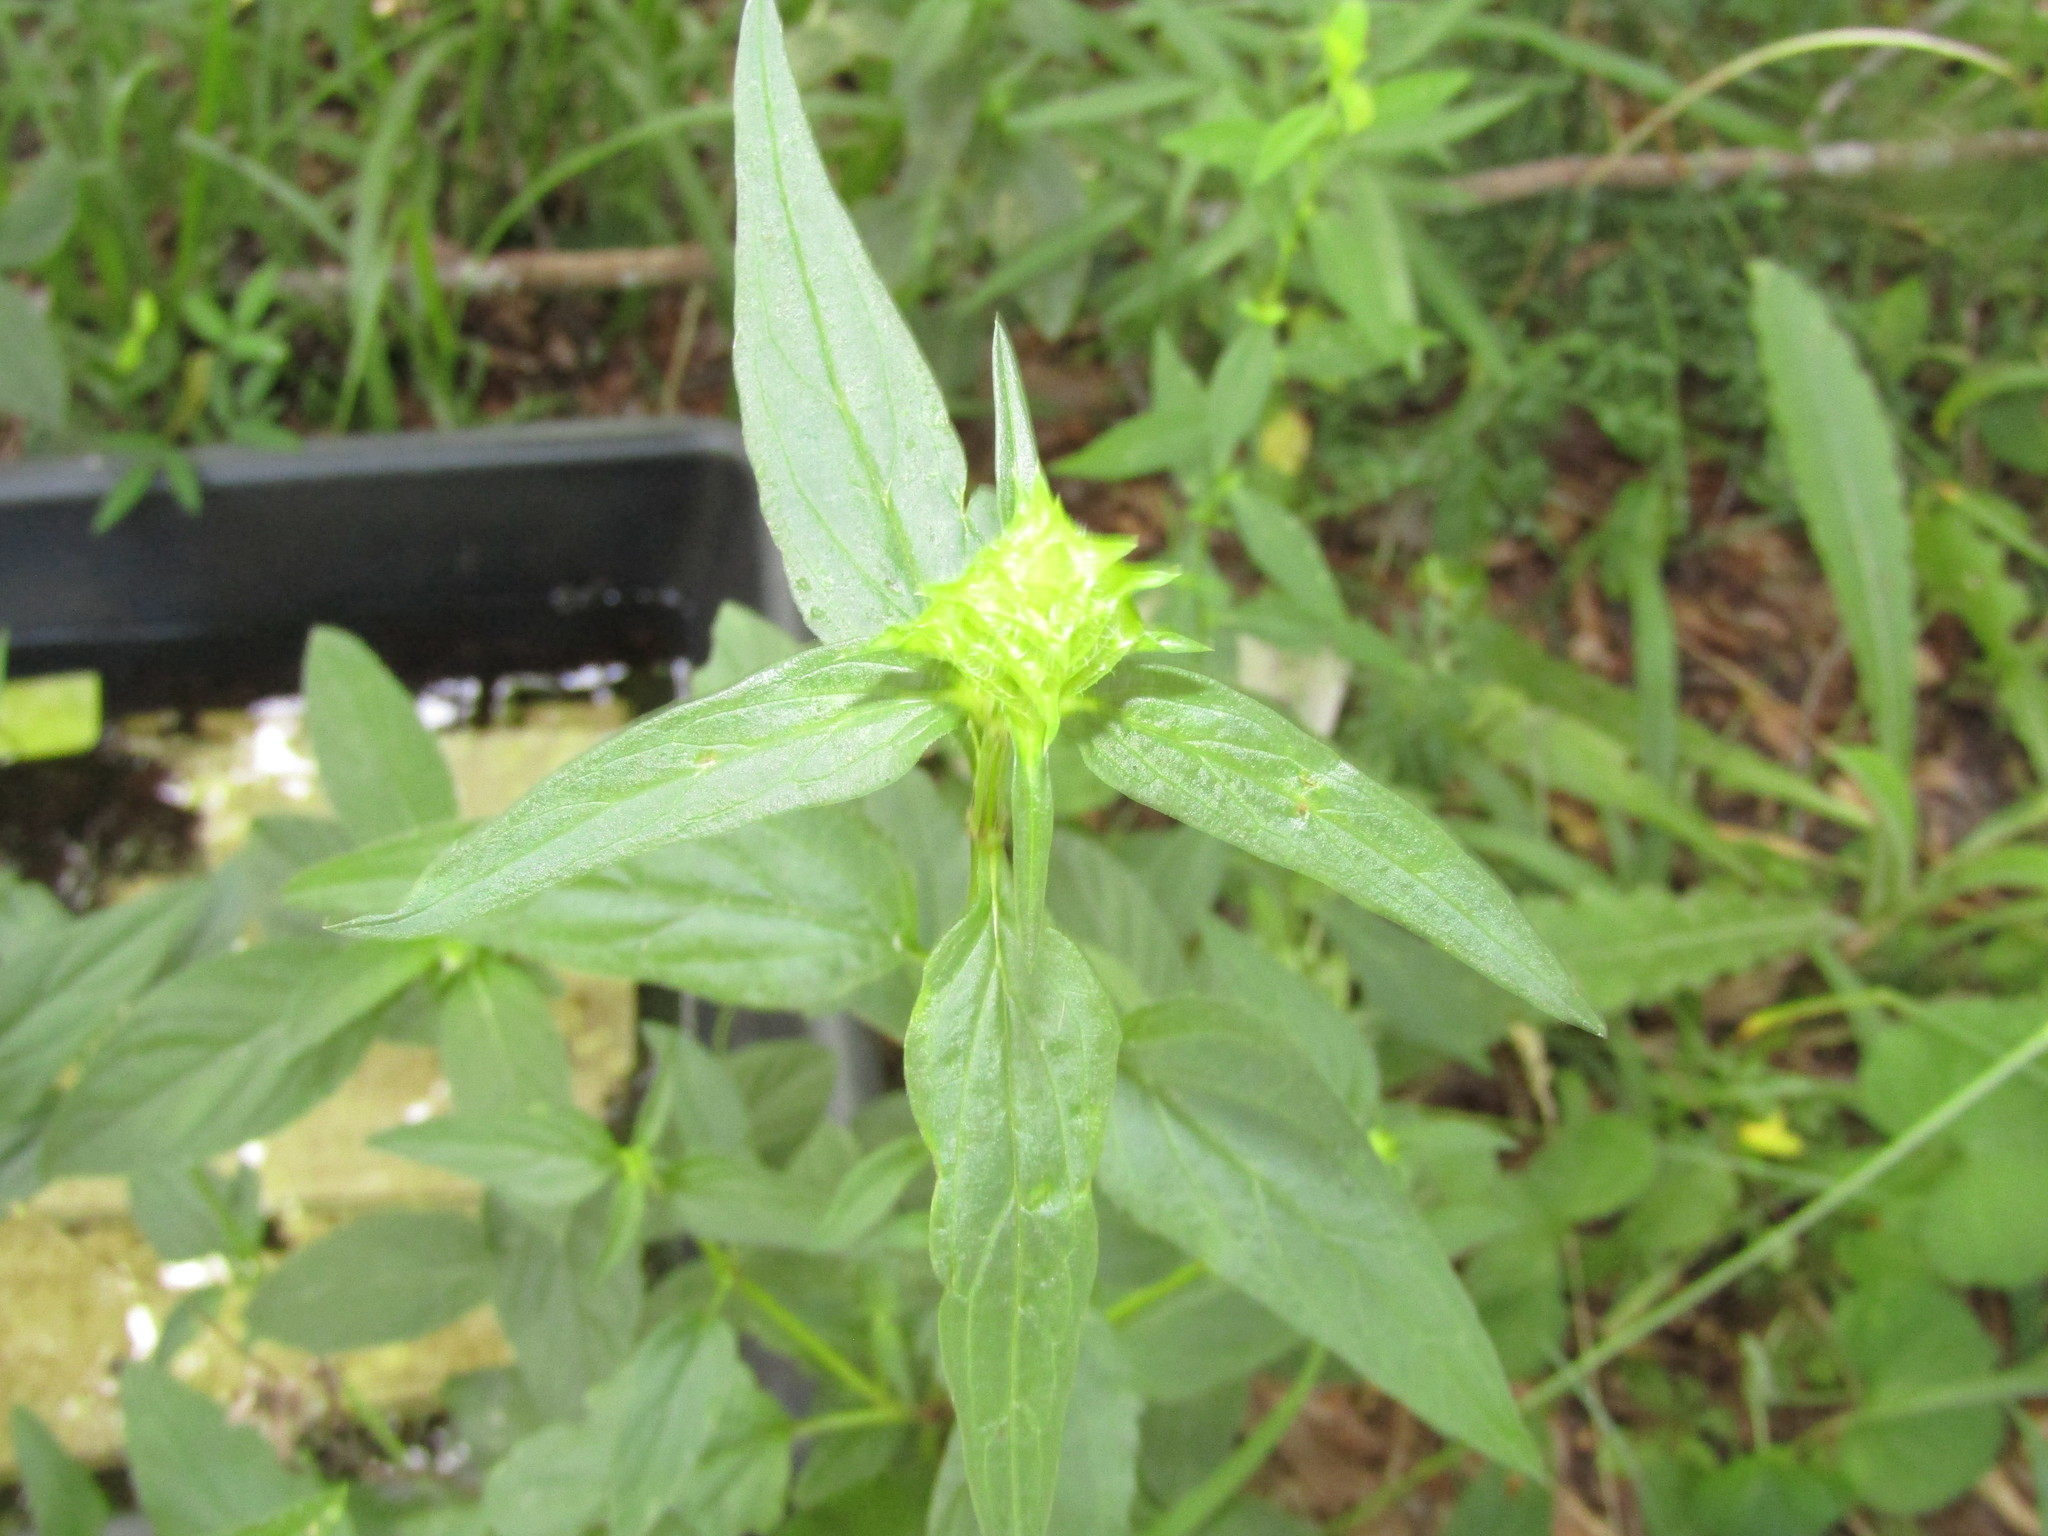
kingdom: Plantae
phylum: Tracheophyta
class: Magnoliopsida
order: Lamiales
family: Lamiaceae
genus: Prunella
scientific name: Prunella vulgaris
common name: Heal-all
